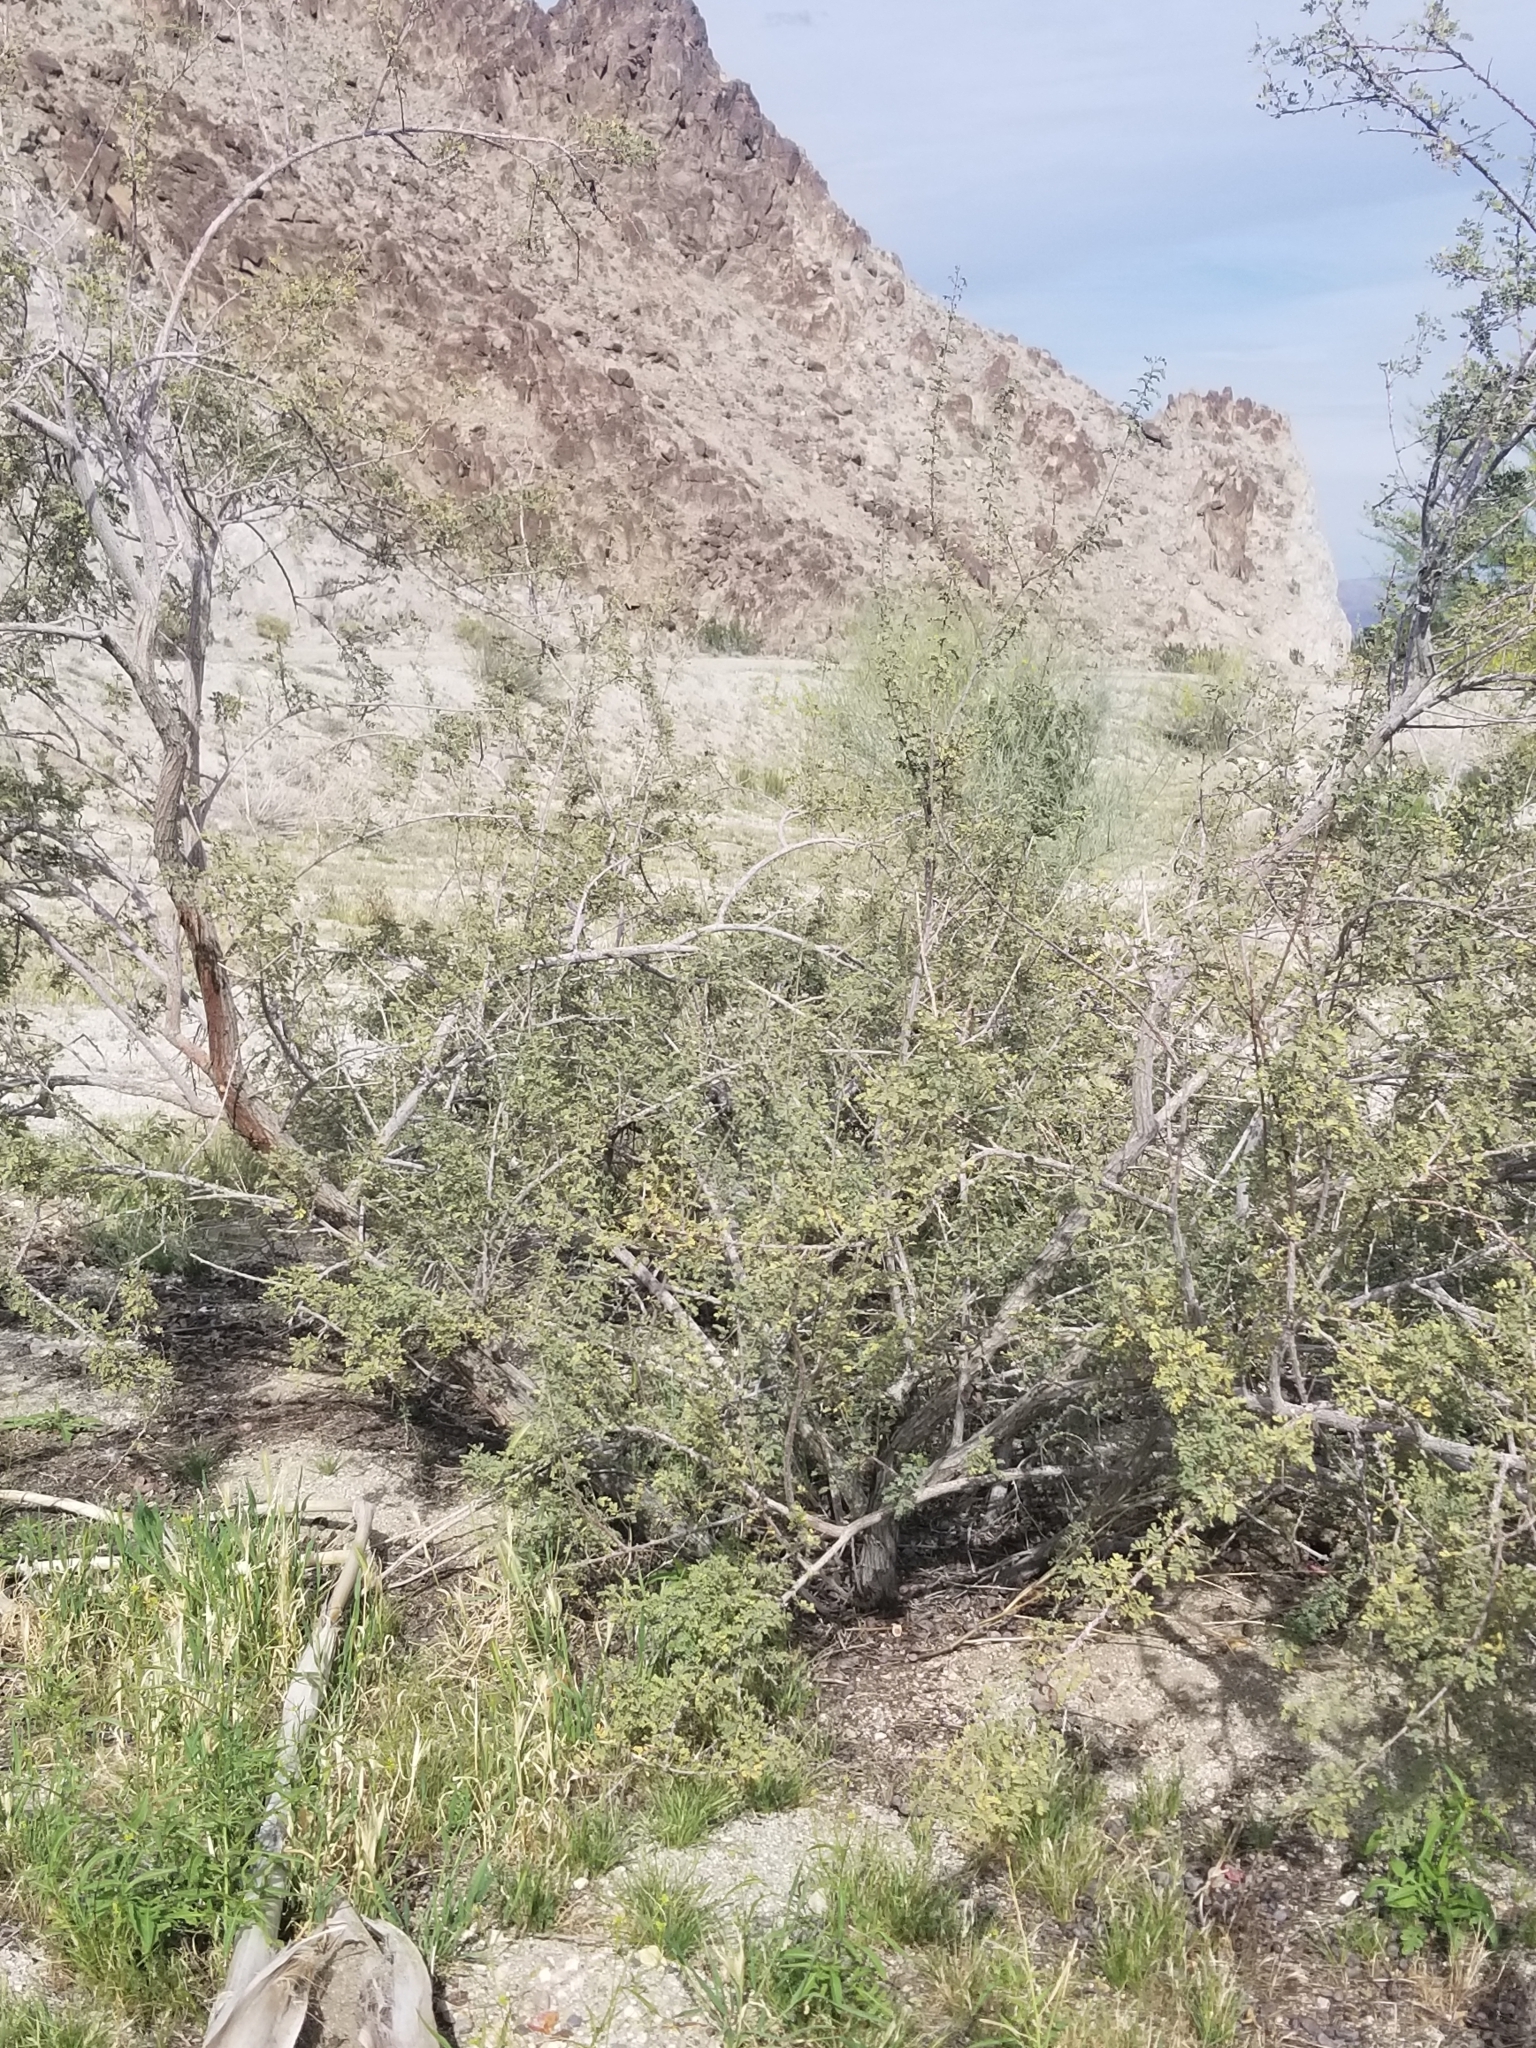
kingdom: Plantae
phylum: Tracheophyta
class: Magnoliopsida
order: Fabales
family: Fabaceae
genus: Senegalia
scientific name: Senegalia greggii
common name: Texas-mimosa
